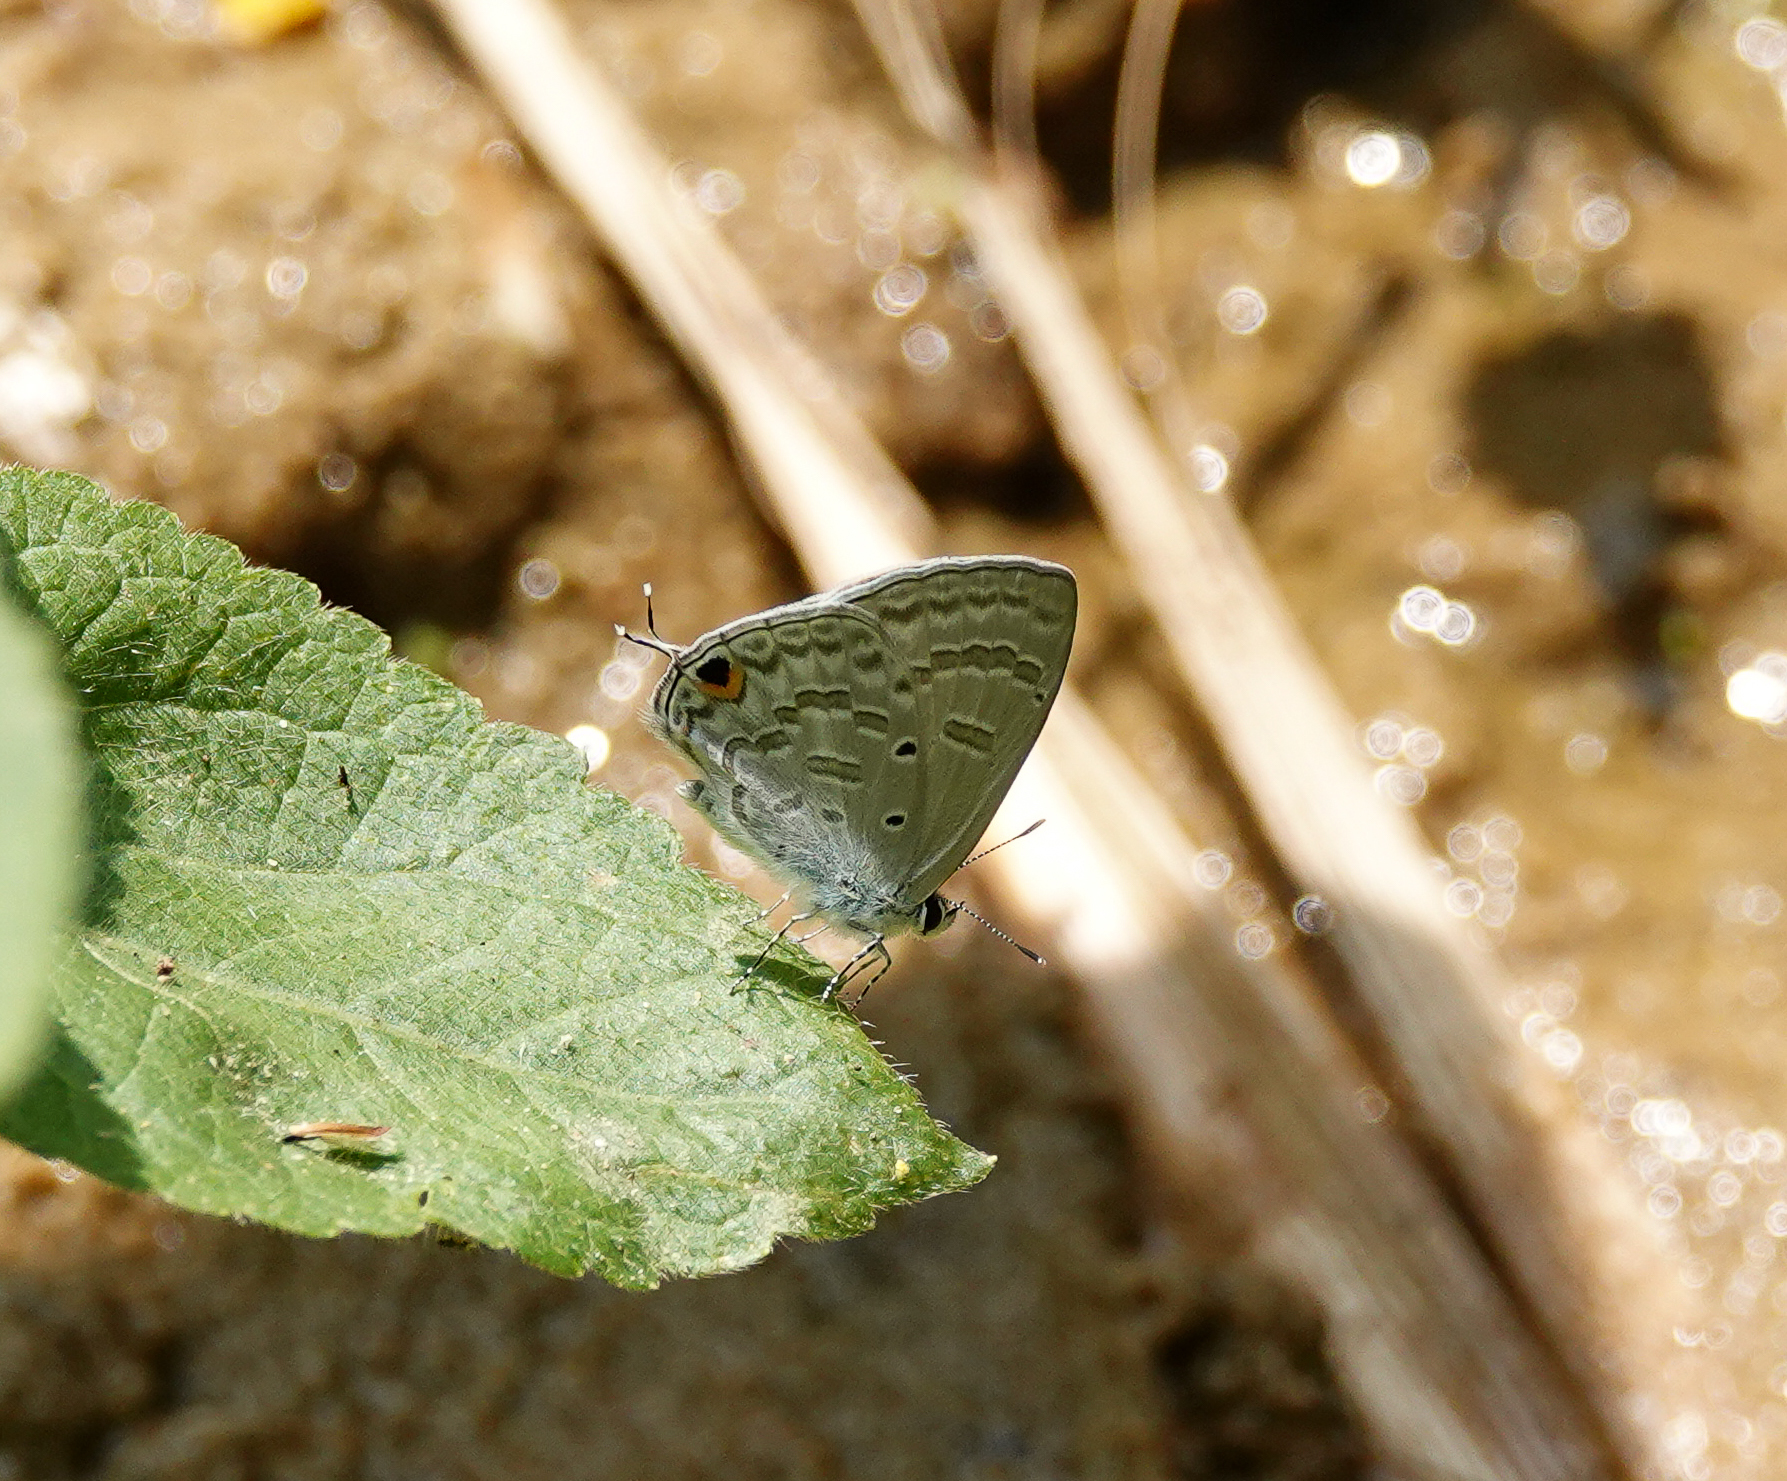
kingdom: Animalia
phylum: Arthropoda
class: Insecta
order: Lepidoptera
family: Lycaenidae
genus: Catochrysops
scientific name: Catochrysops strabo
